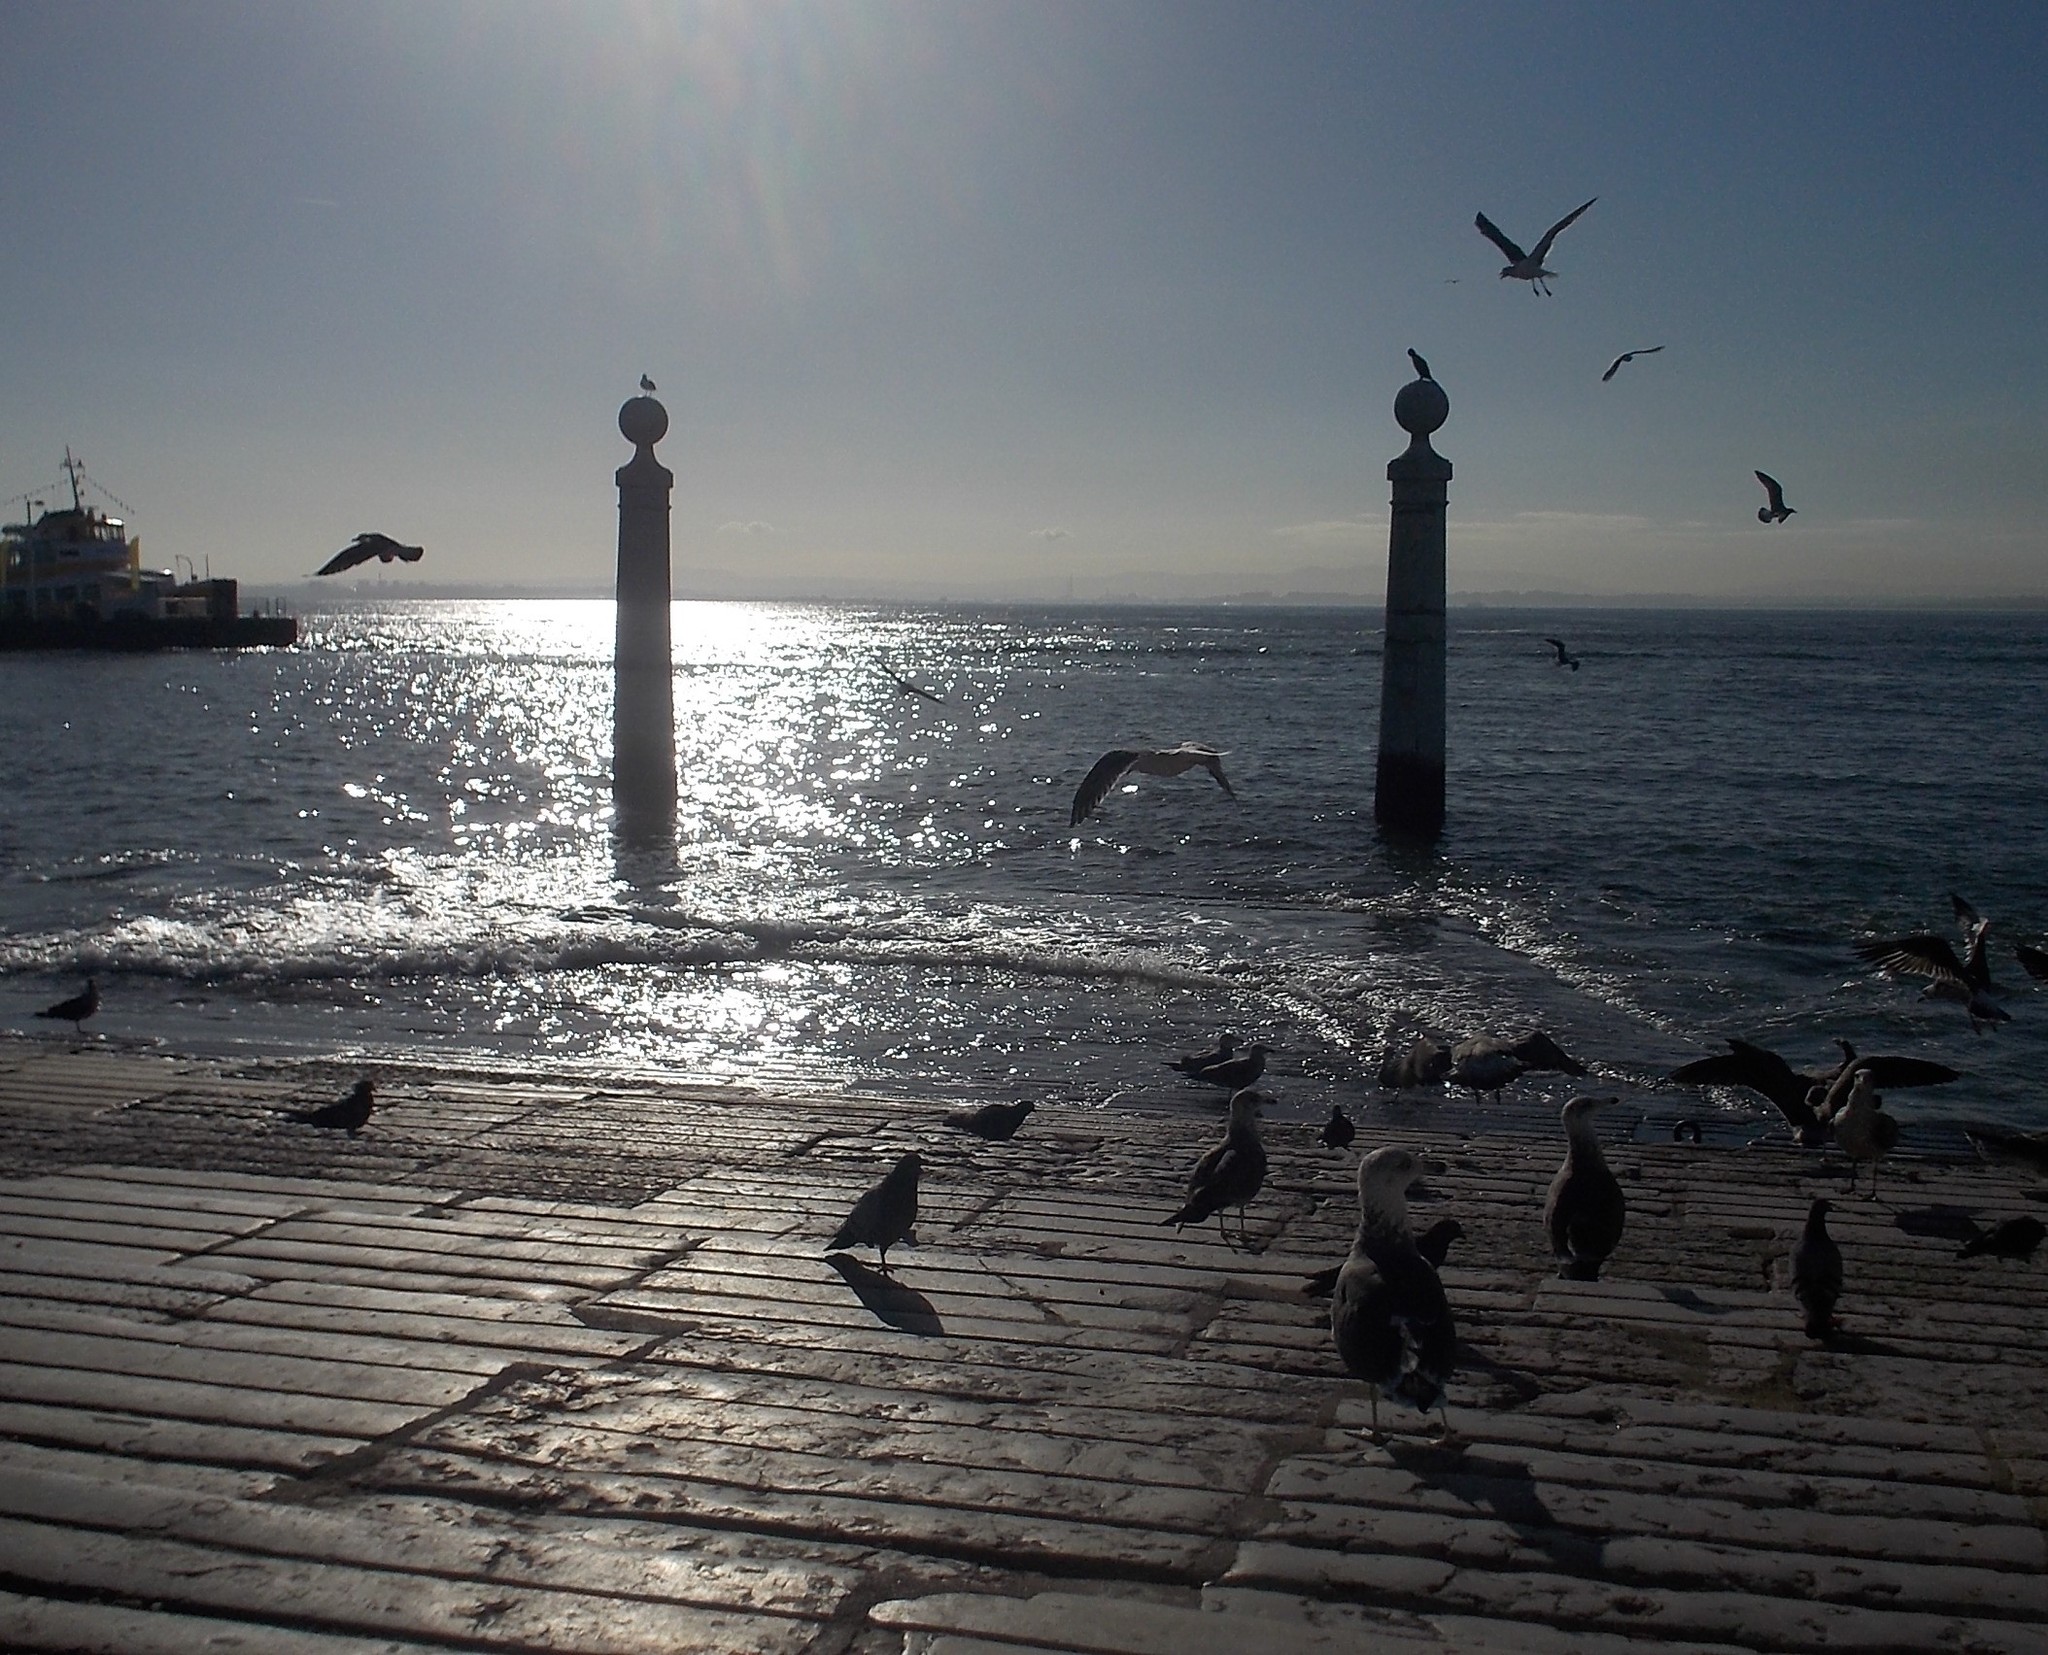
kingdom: Animalia
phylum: Chordata
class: Aves
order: Charadriiformes
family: Laridae
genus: Larus
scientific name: Larus
